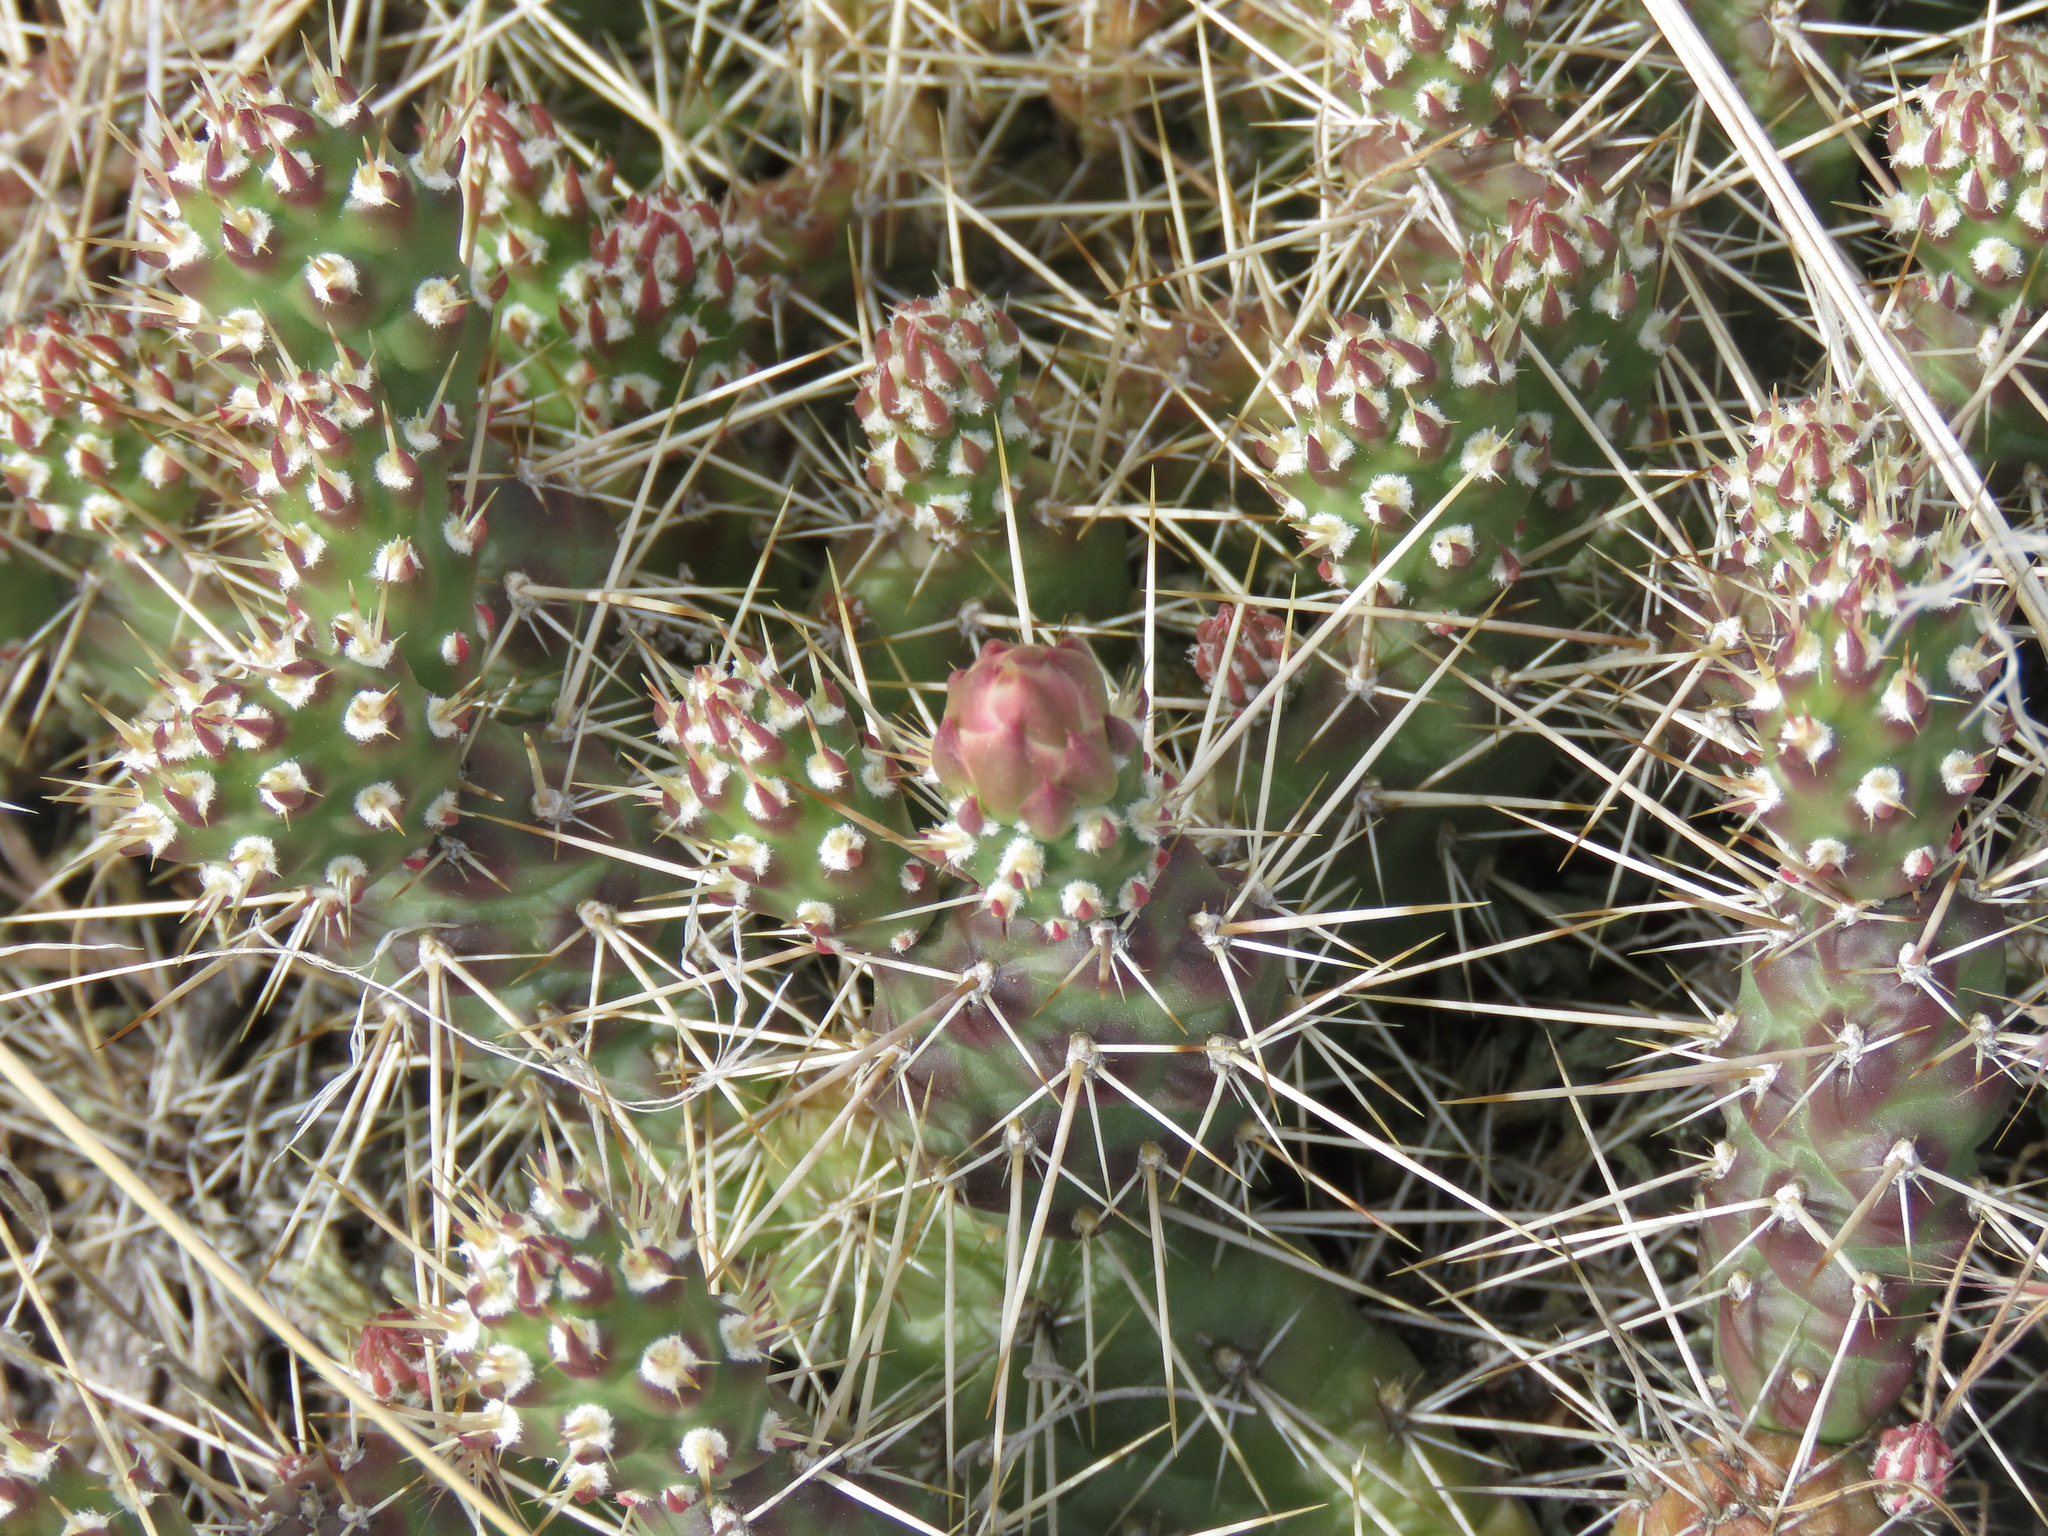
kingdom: Plantae
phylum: Tracheophyta
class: Magnoliopsida
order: Caryophyllales
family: Cactaceae
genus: Opuntia
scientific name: Opuntia fragilis
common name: Brittle cactus
